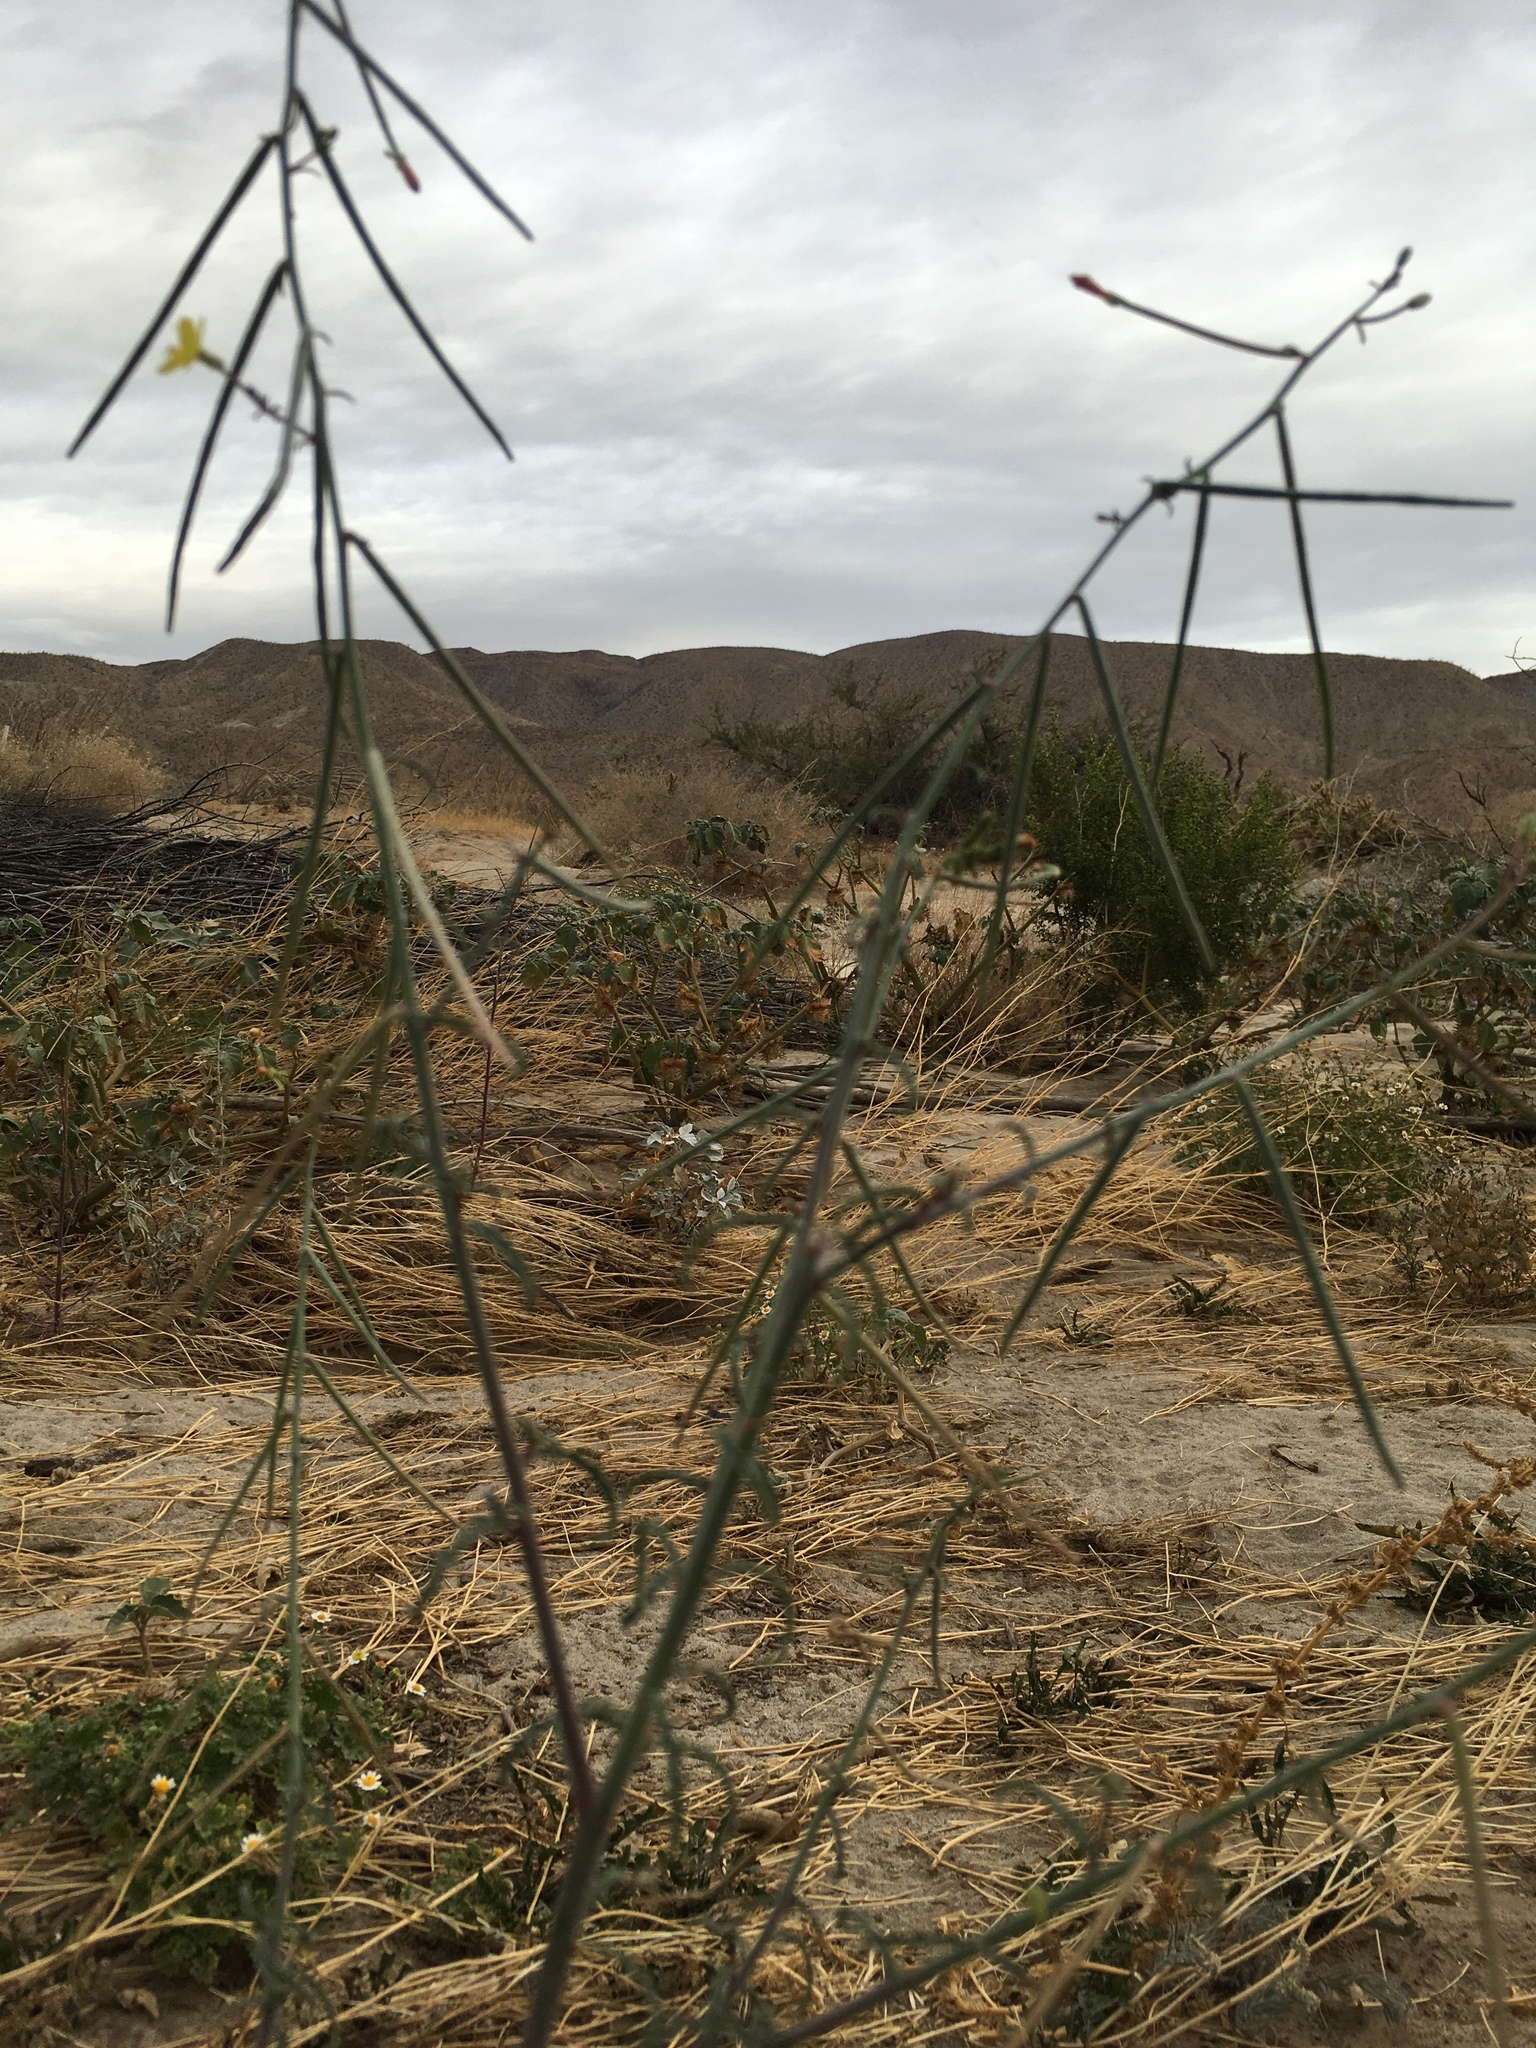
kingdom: Plantae
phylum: Tracheophyta
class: Magnoliopsida
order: Myrtales
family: Onagraceae
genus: Eulobus
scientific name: Eulobus californicus
